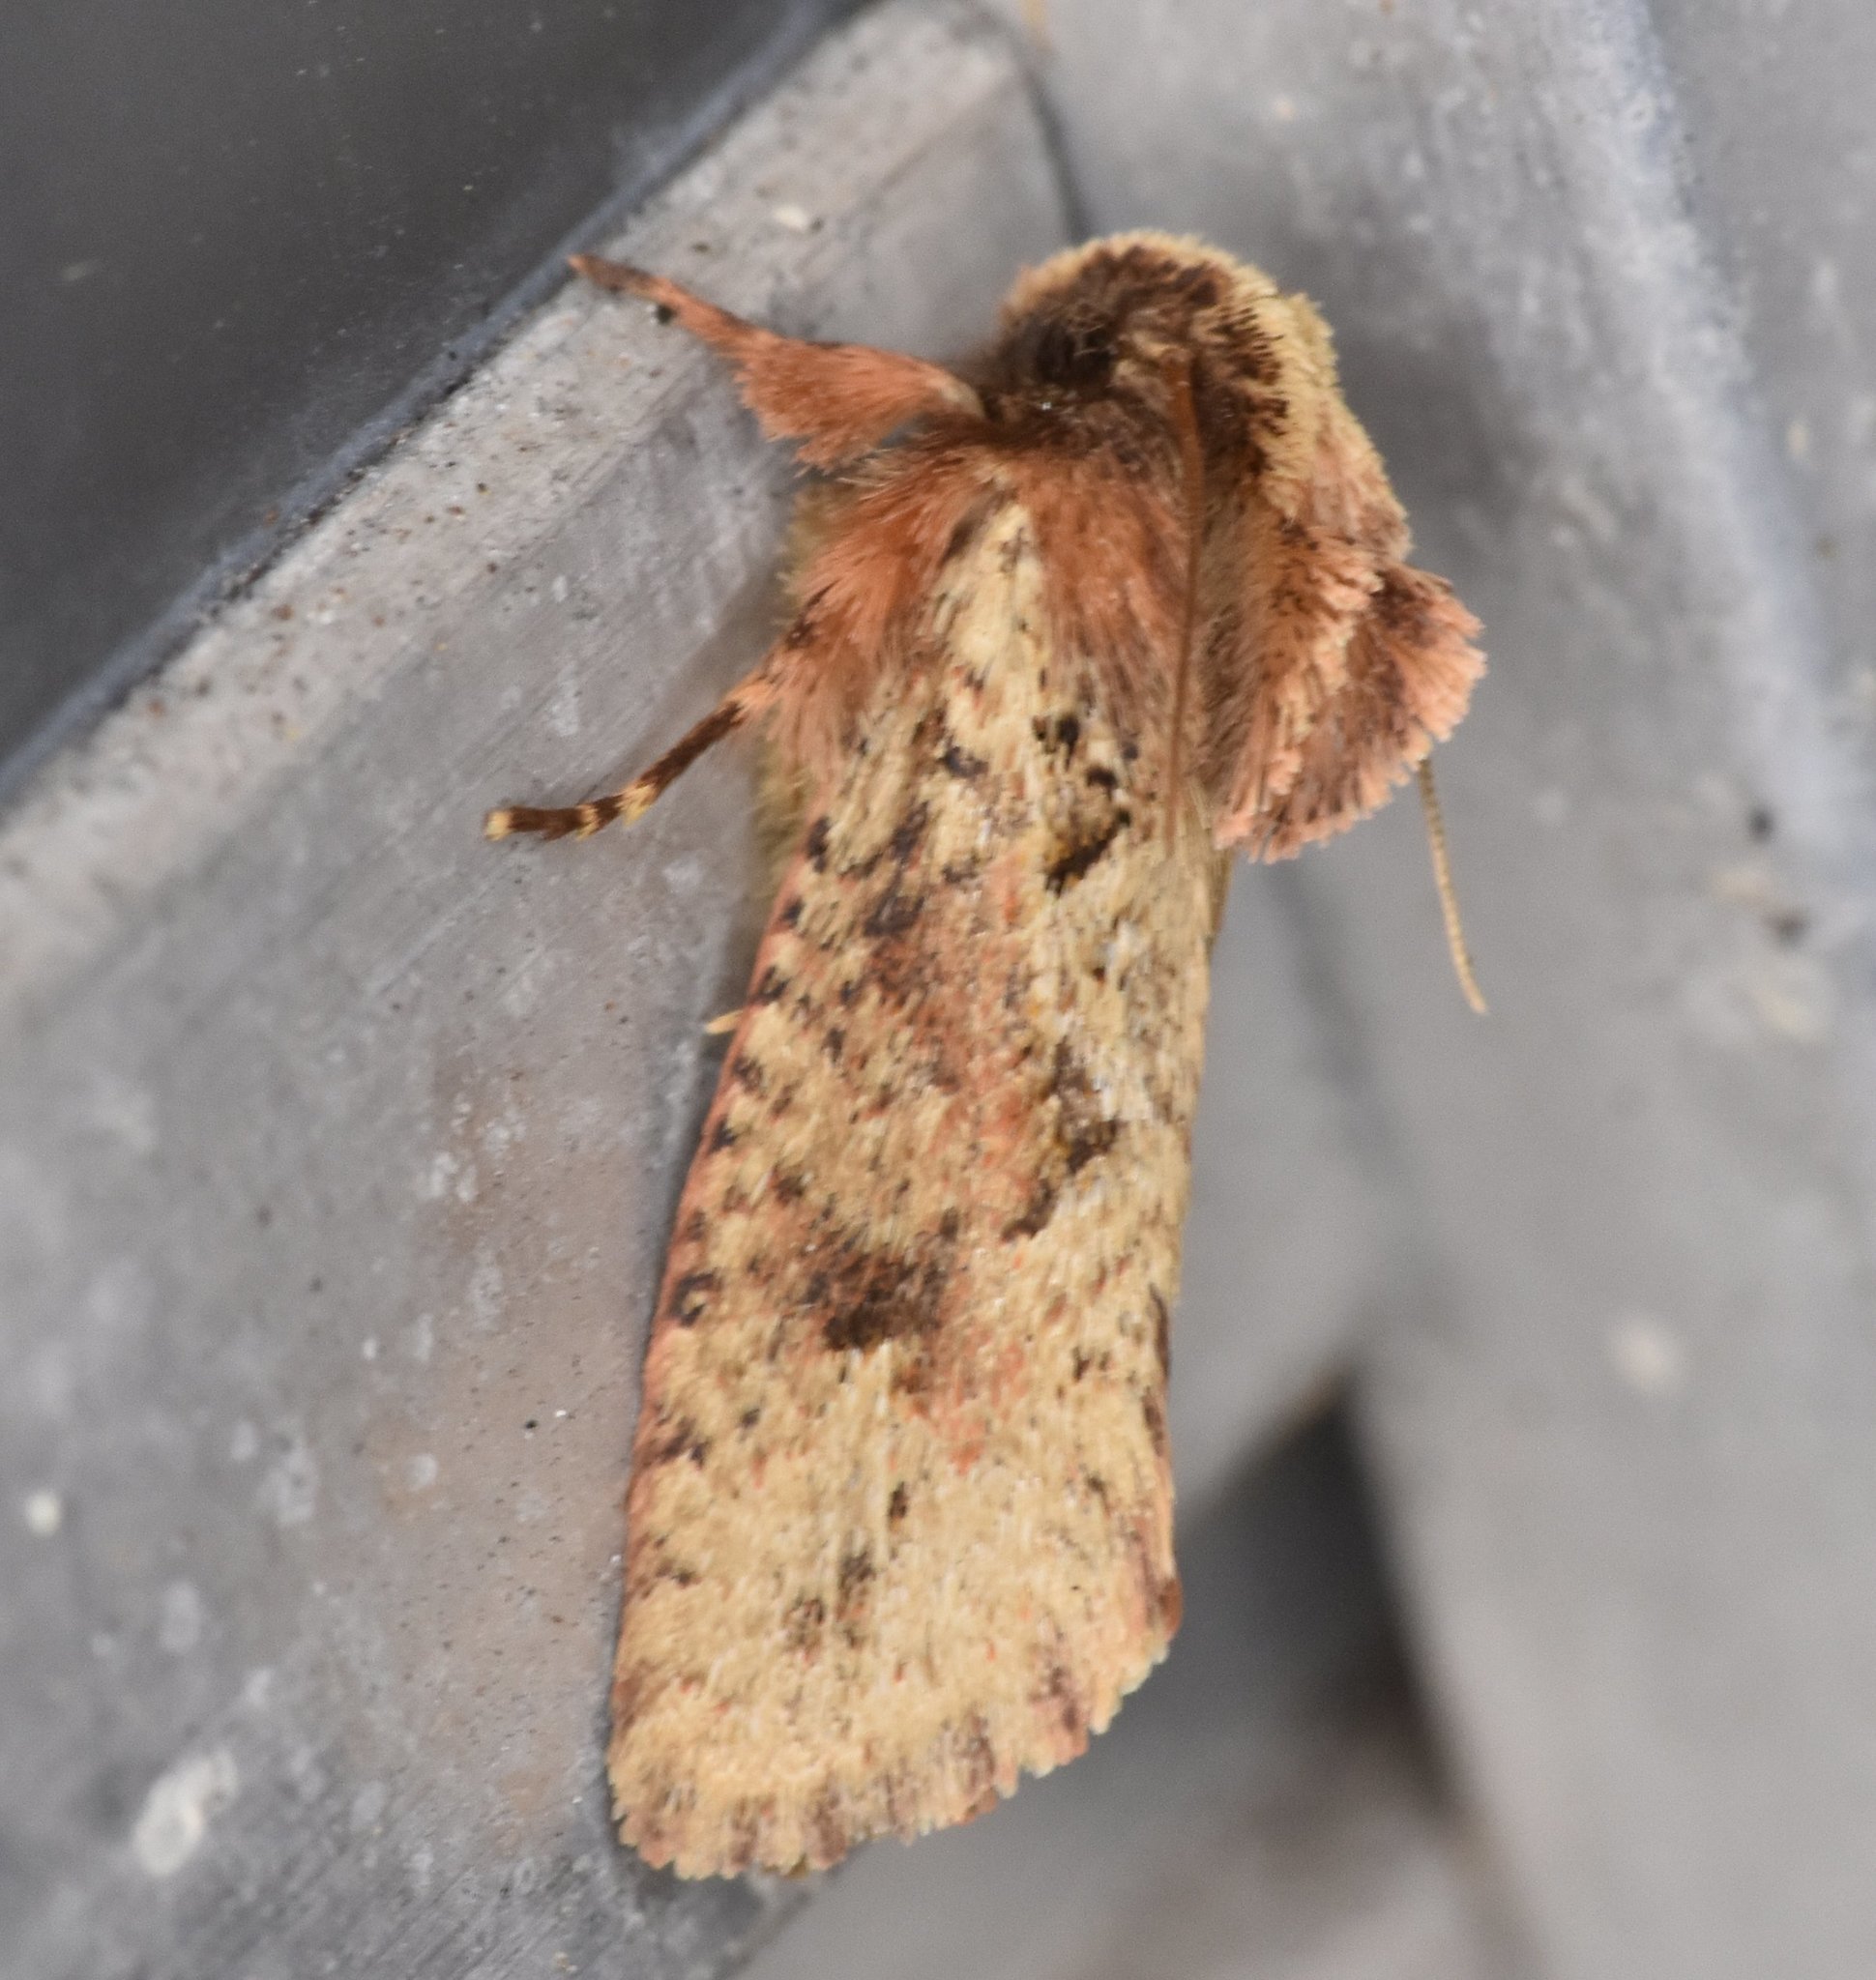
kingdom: Animalia
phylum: Arthropoda
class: Insecta
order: Lepidoptera
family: Tineidae
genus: Acrolophus
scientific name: Acrolophus walsinghami
